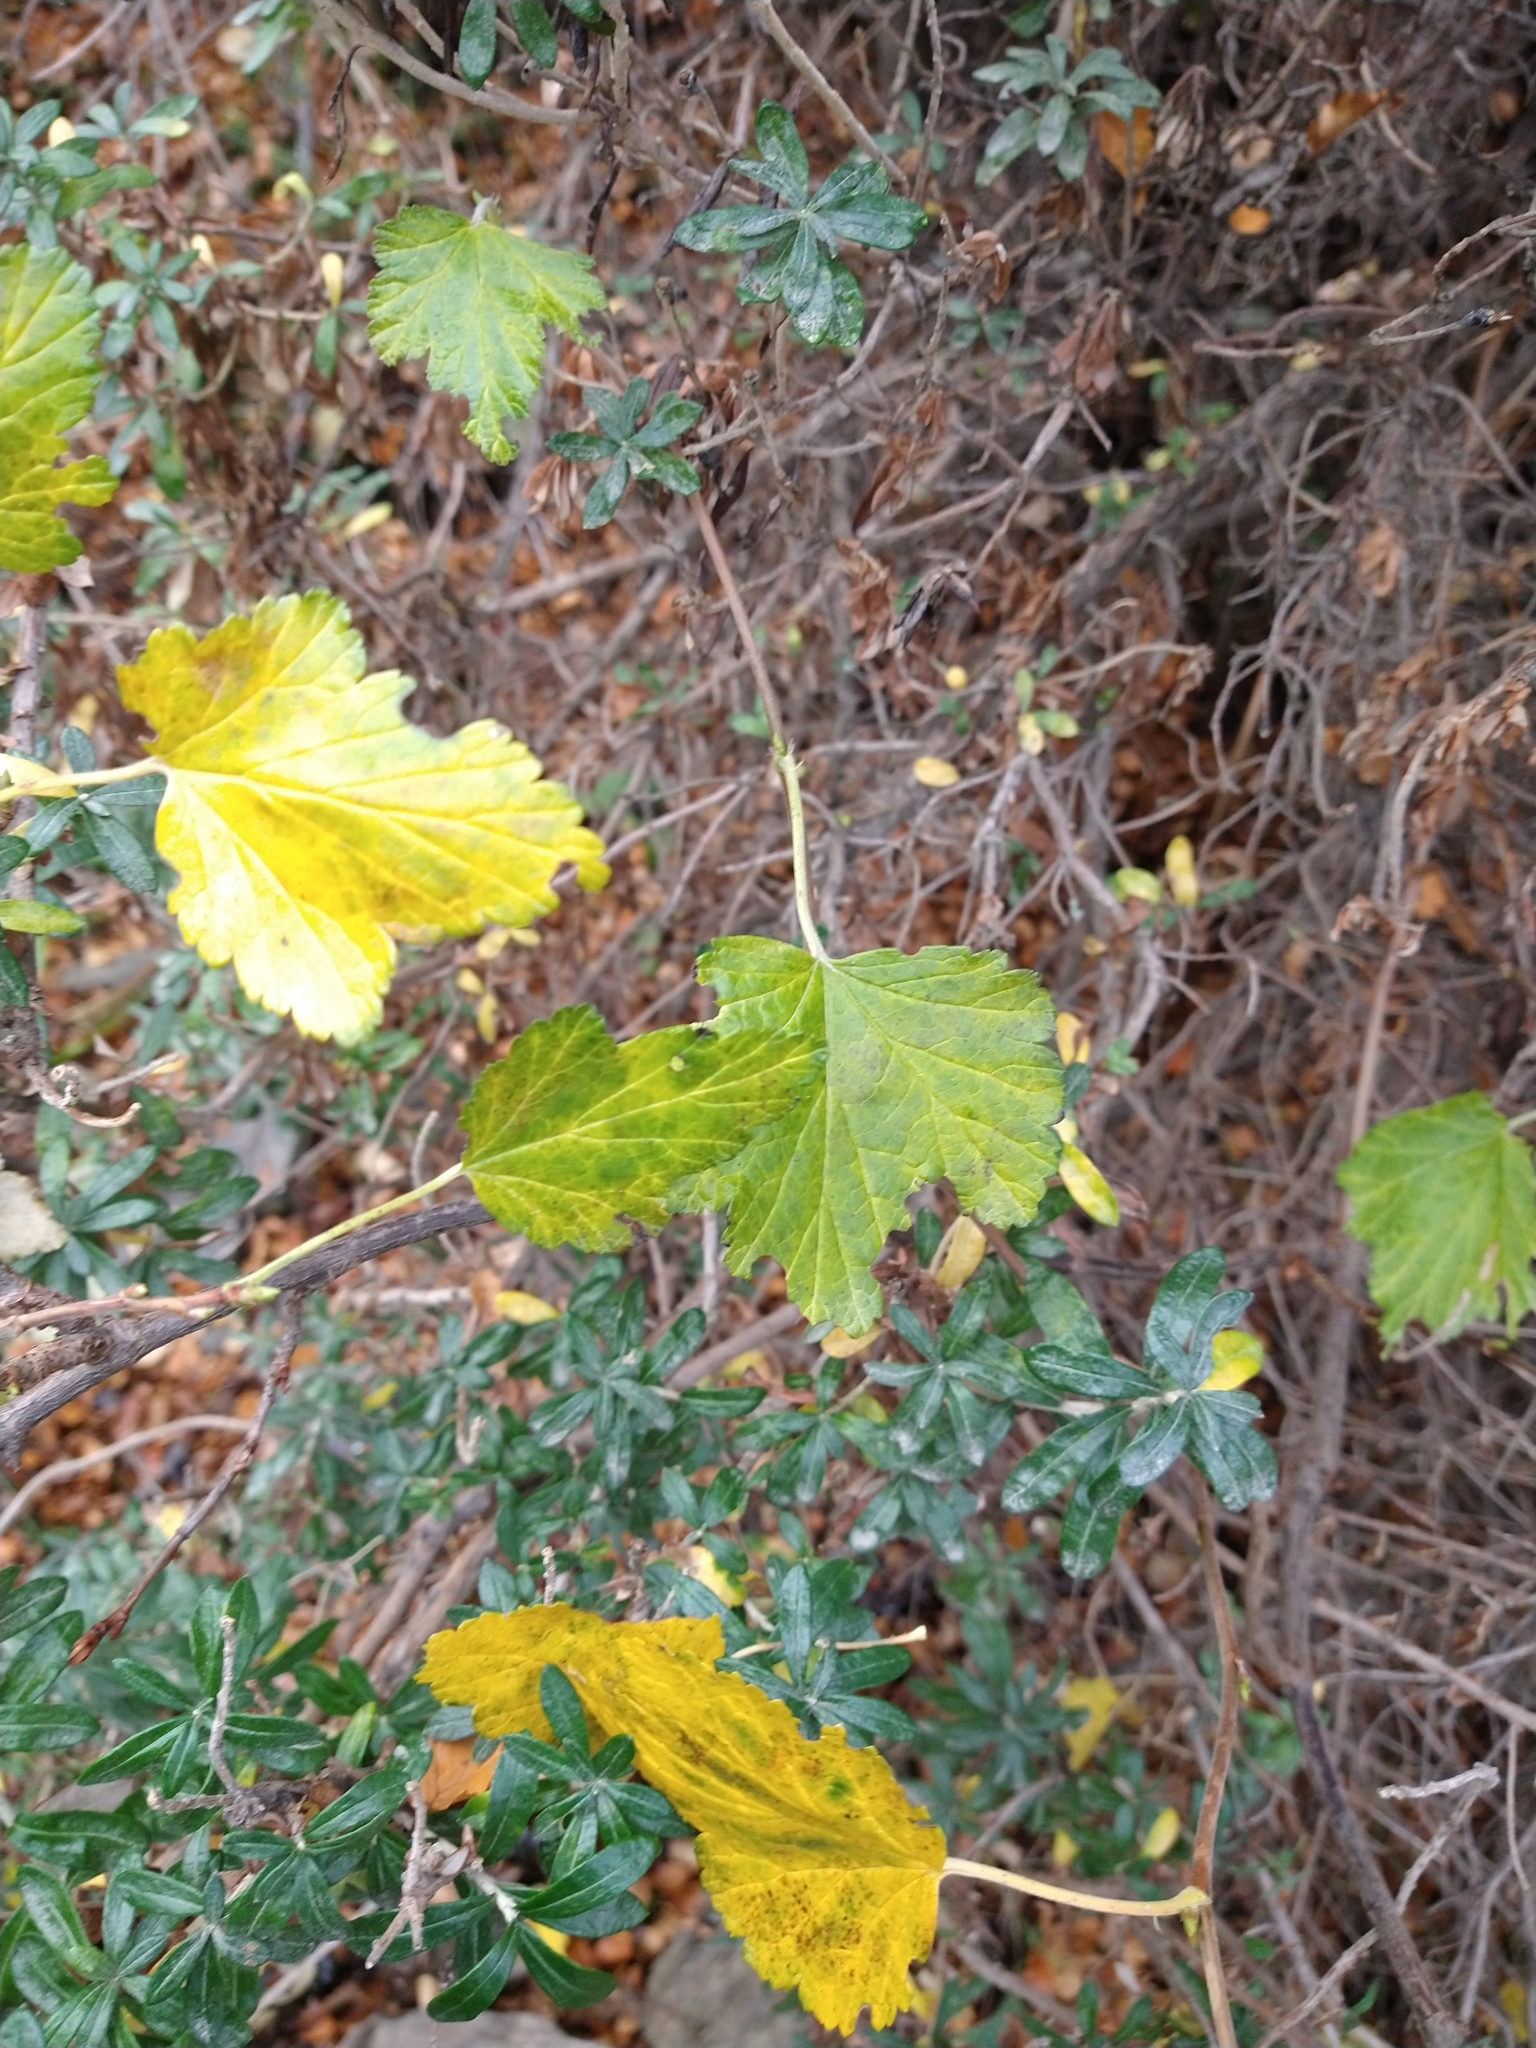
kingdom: Plantae
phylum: Tracheophyta
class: Magnoliopsida
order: Saxifragales
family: Grossulariaceae
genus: Ribes
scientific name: Ribes magellanicum
